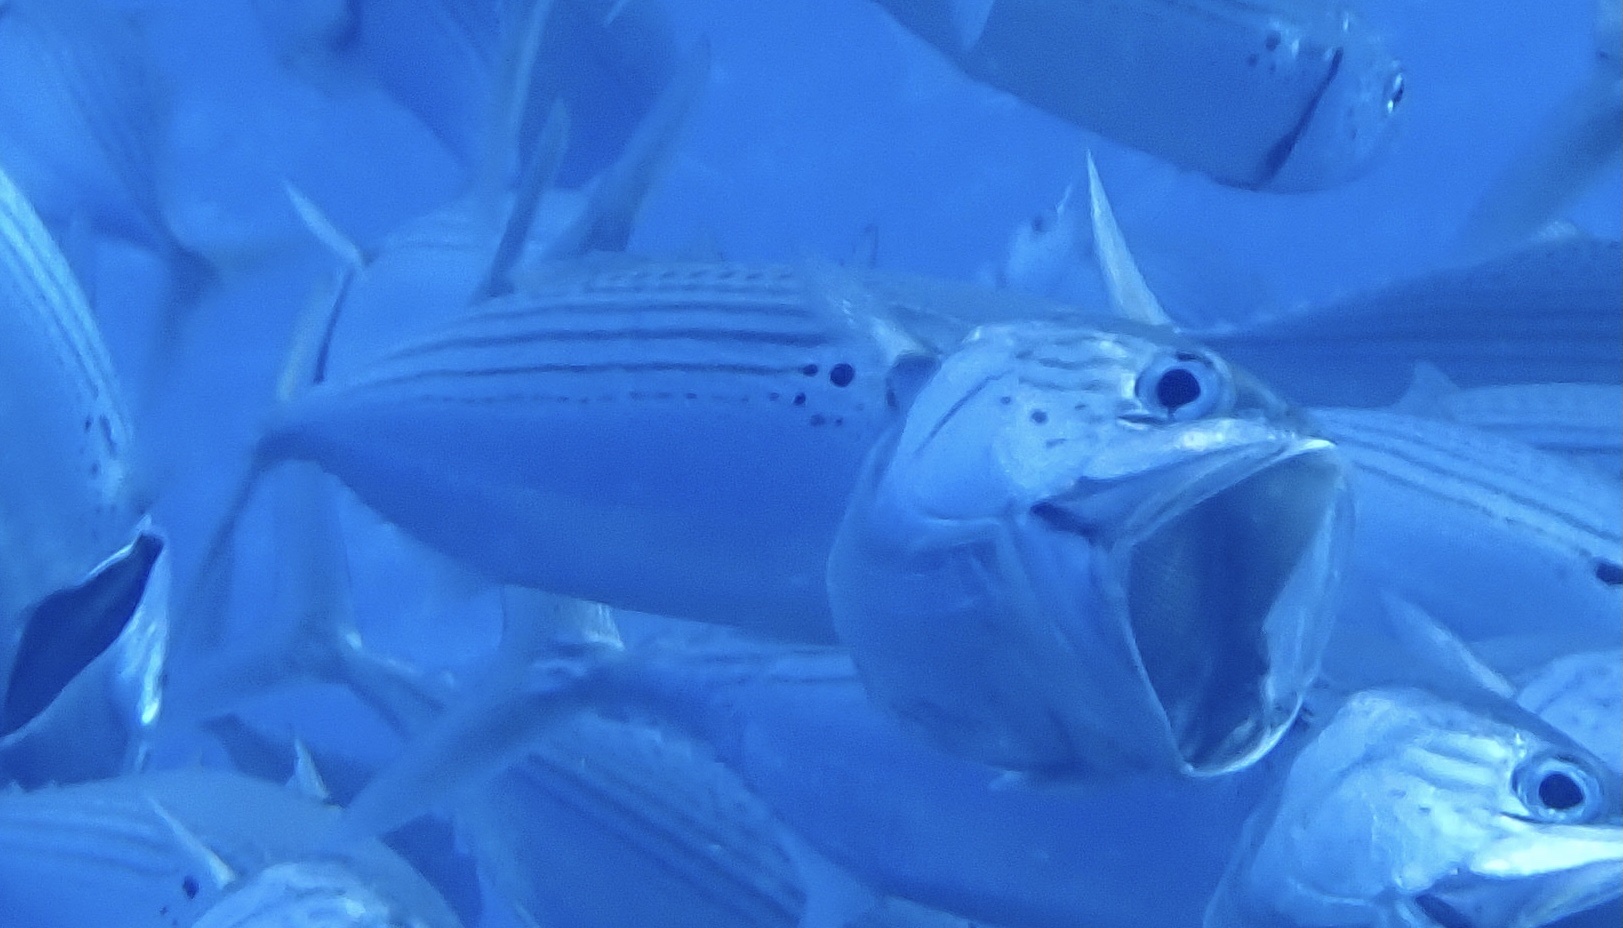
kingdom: Animalia
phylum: Chordata
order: Perciformes
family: Scombridae
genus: Rastrelliger
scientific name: Rastrelliger kanagurta
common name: Indian mackerel
